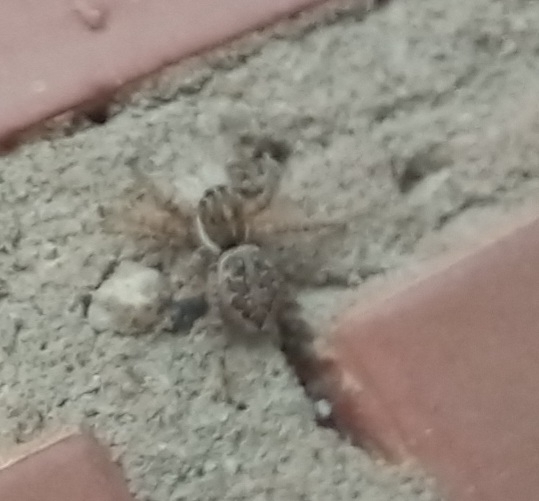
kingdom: Animalia
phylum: Arthropoda
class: Arachnida
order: Araneae
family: Salticidae
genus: Menemerus
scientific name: Menemerus semilimbatus
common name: Jumping spider
